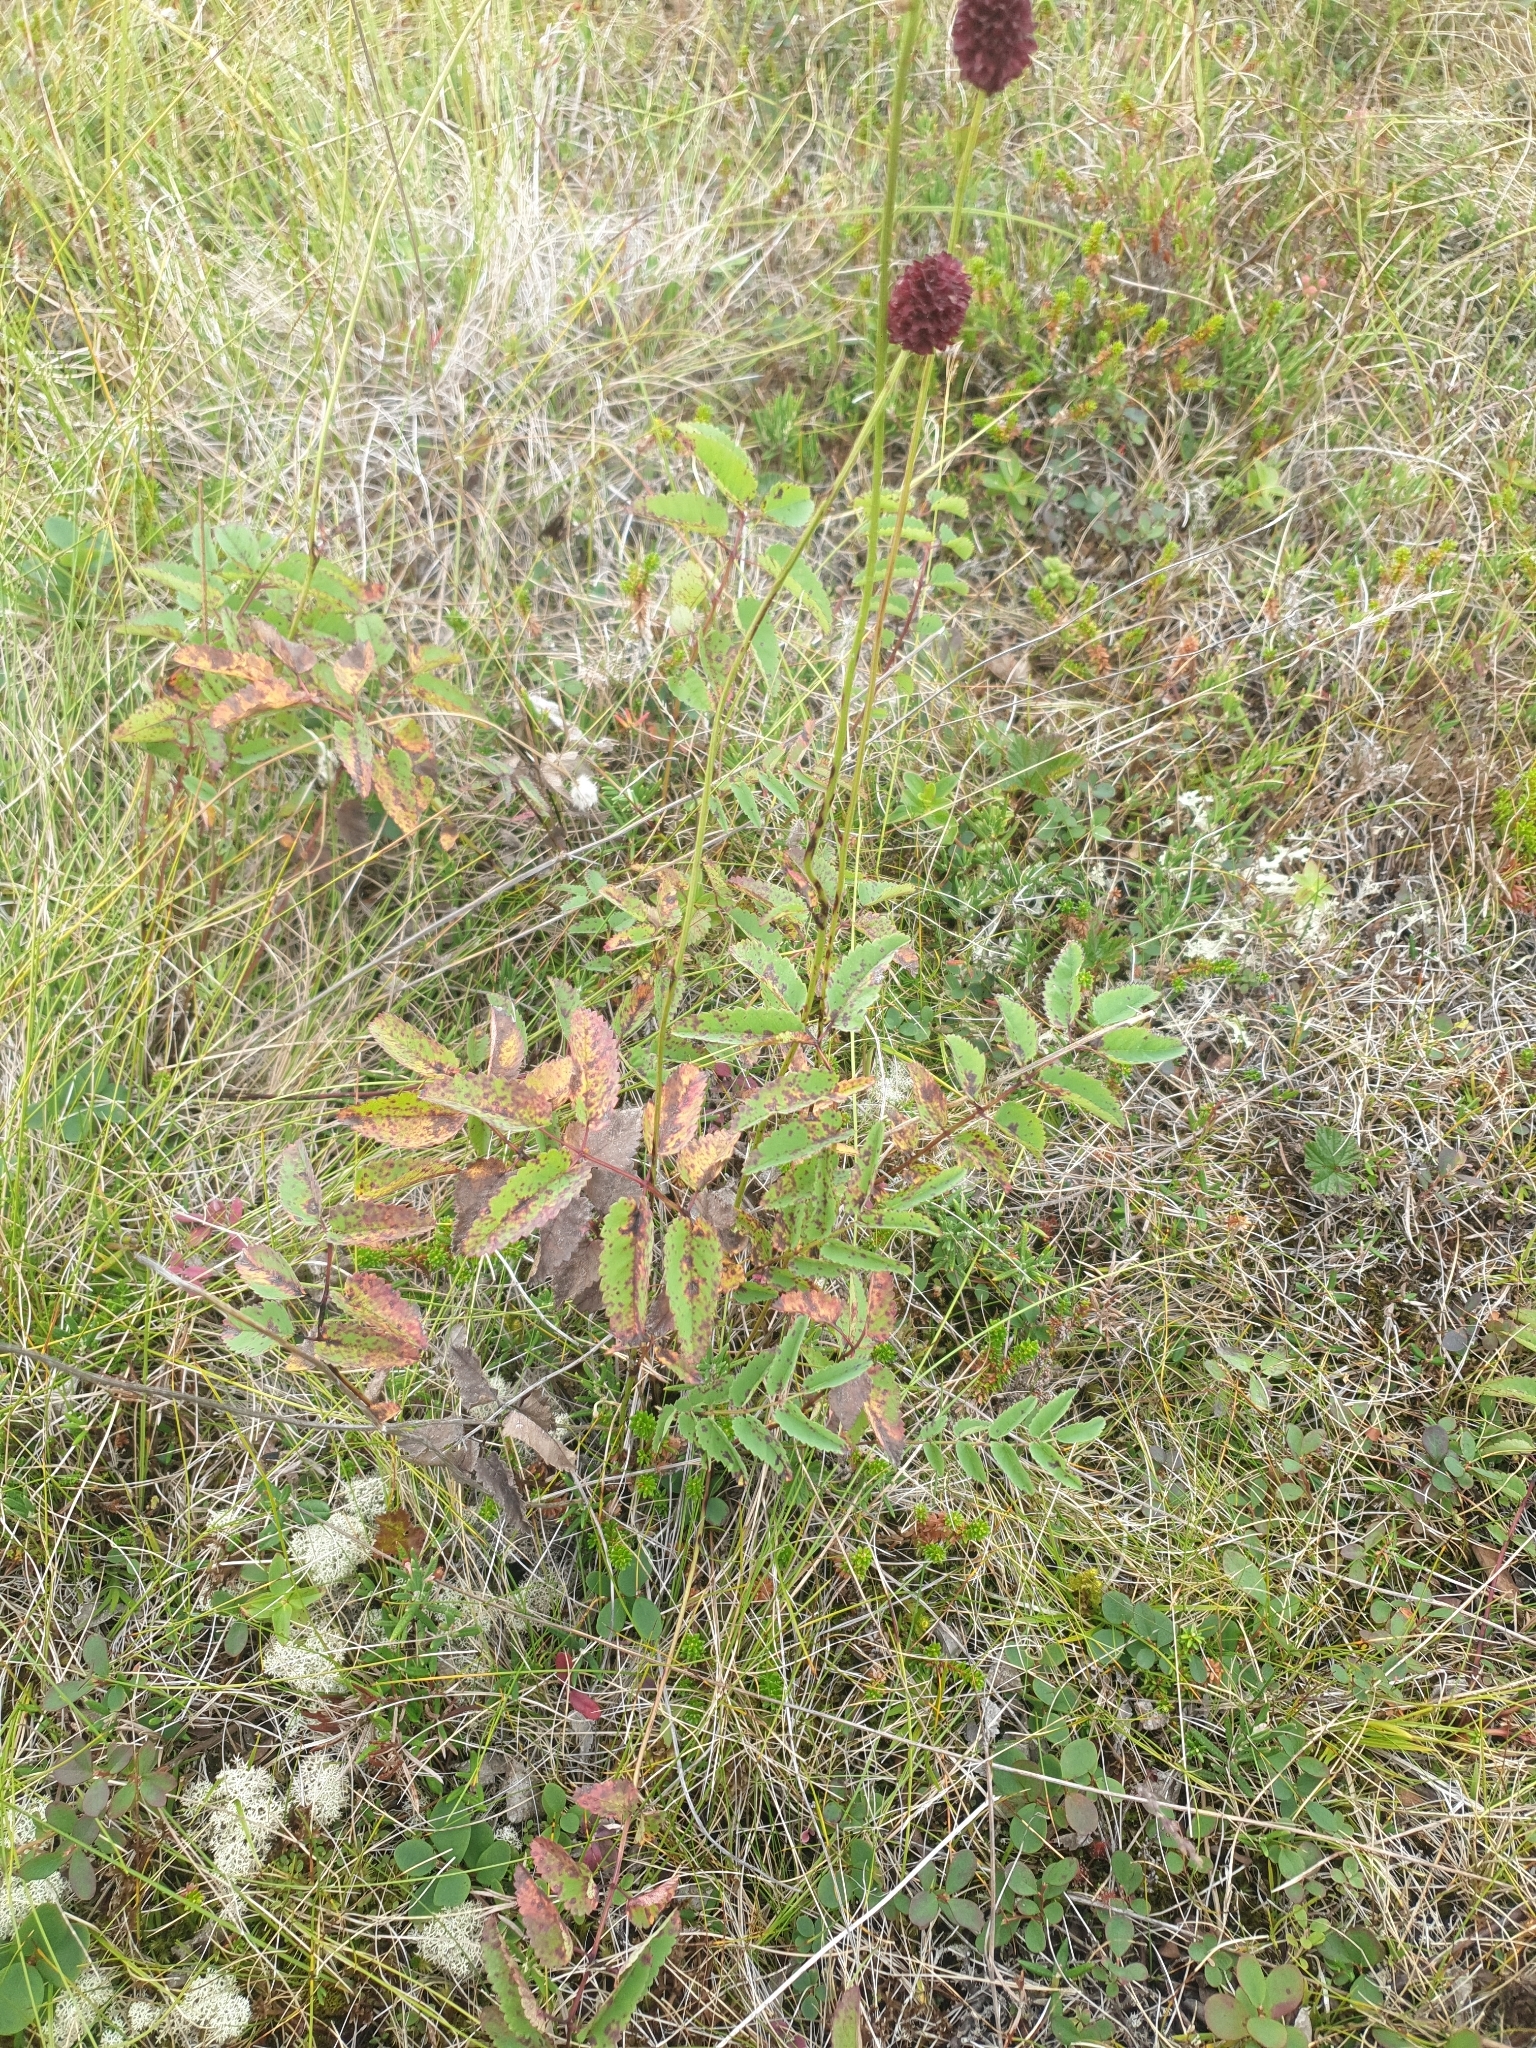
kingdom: Plantae
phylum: Tracheophyta
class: Magnoliopsida
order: Rosales
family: Rosaceae
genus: Sanguisorba
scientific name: Sanguisorba officinalis
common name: Great burnet
